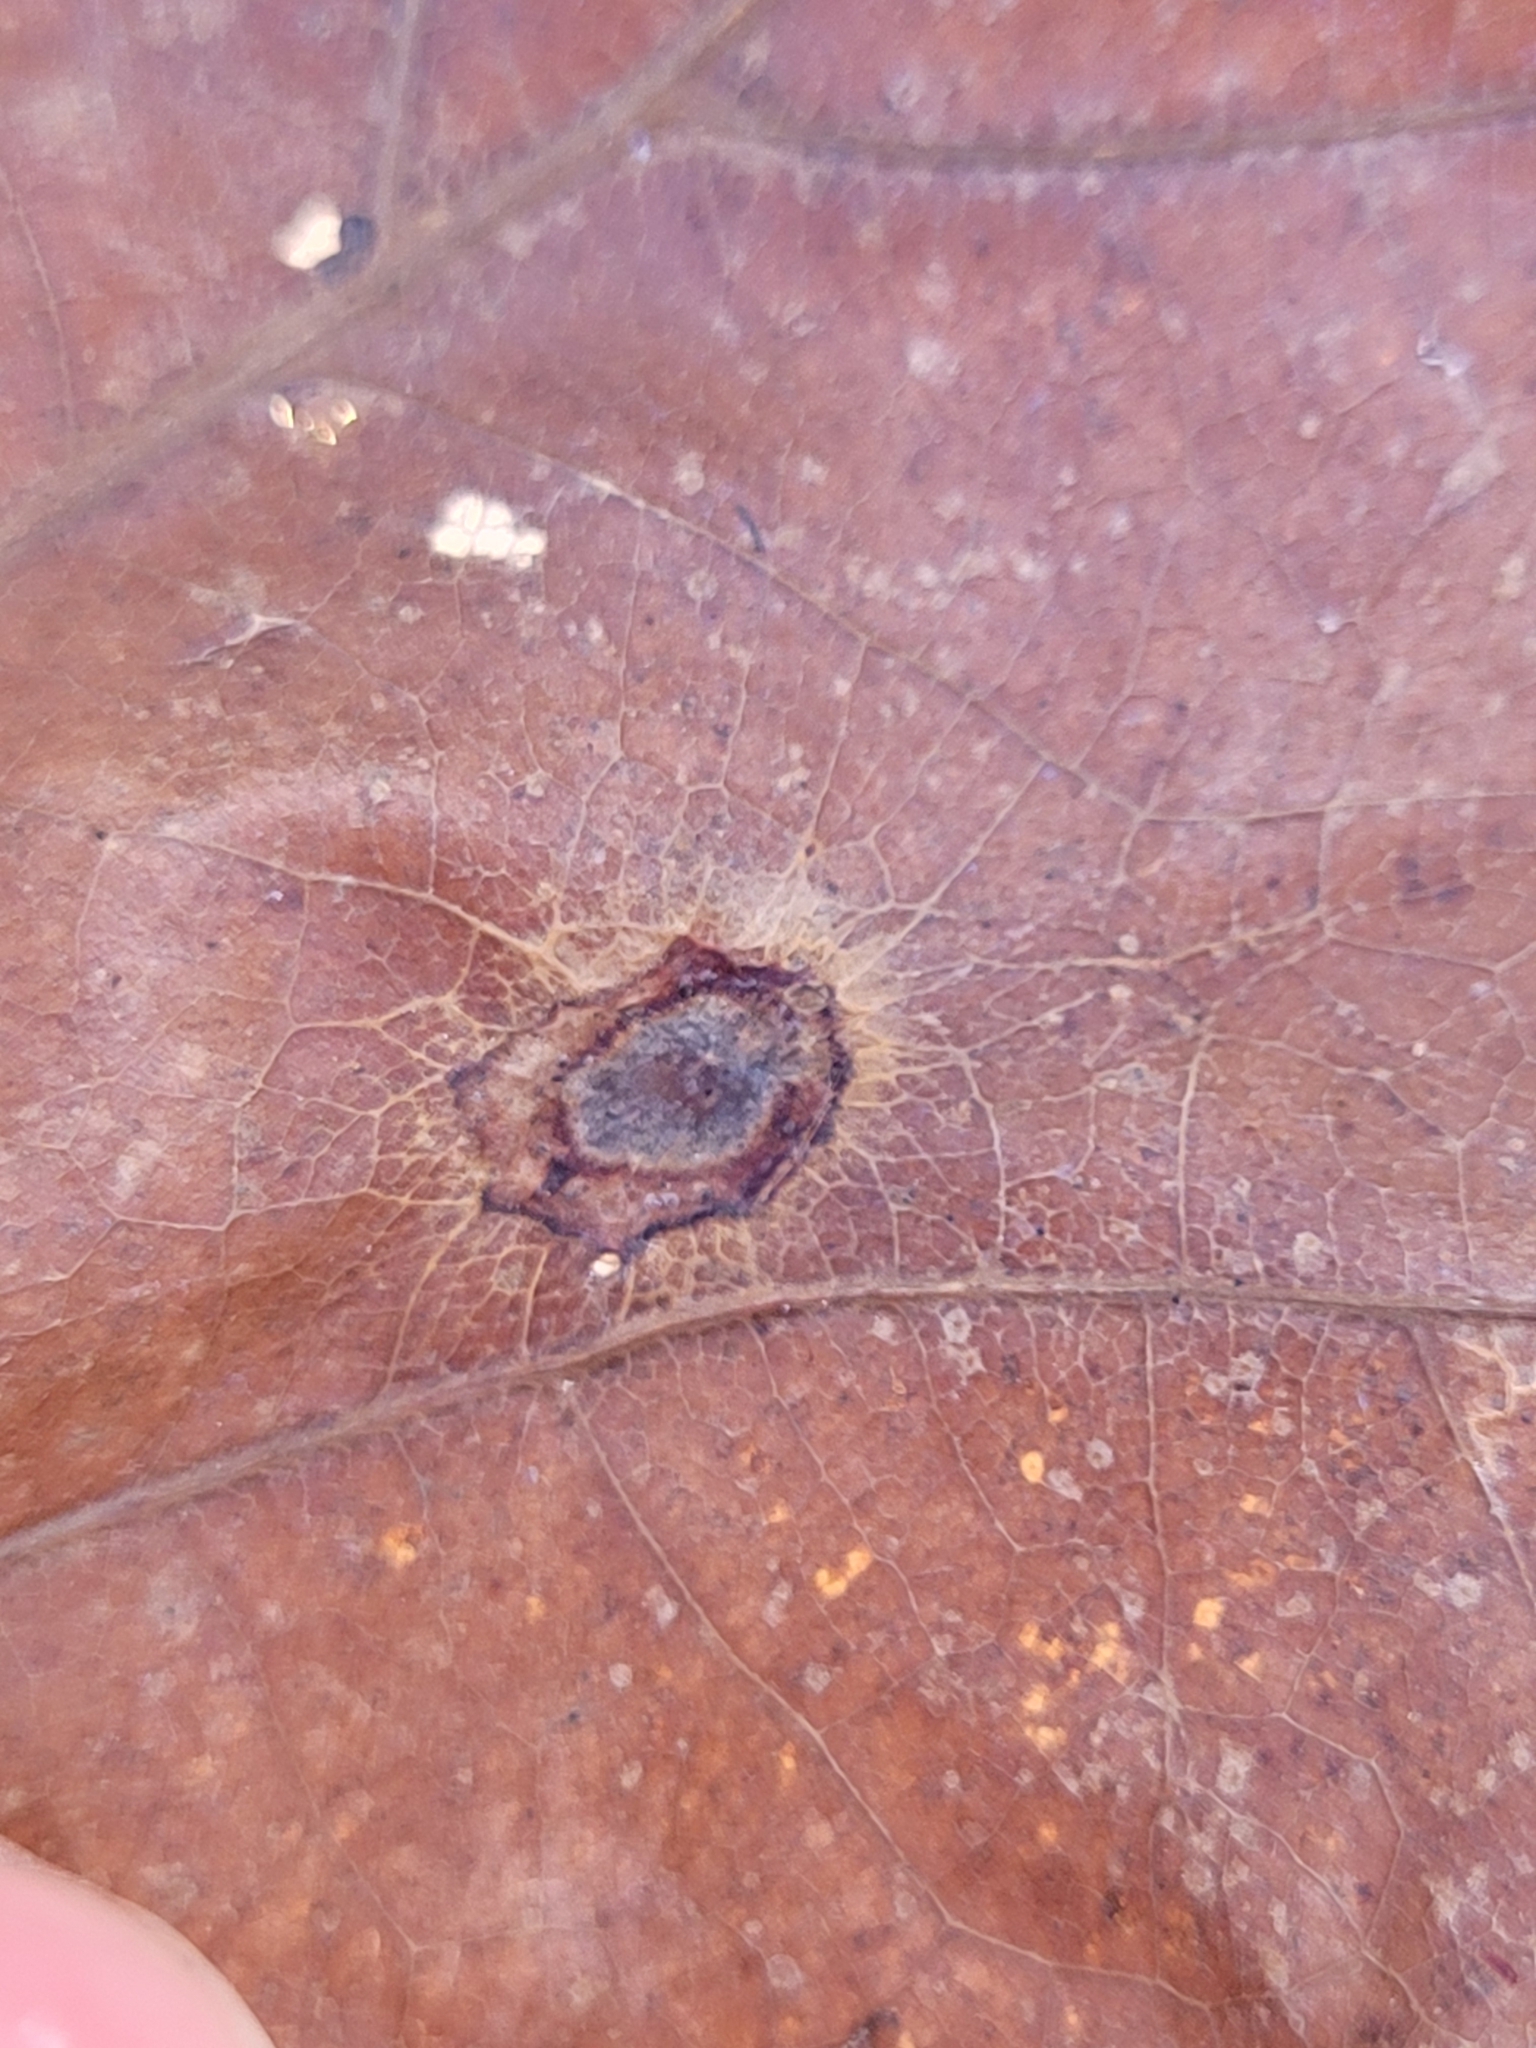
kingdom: Animalia
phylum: Arthropoda
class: Insecta
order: Hymenoptera
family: Cynipidae
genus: Dryocosmus
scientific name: Dryocosmus
